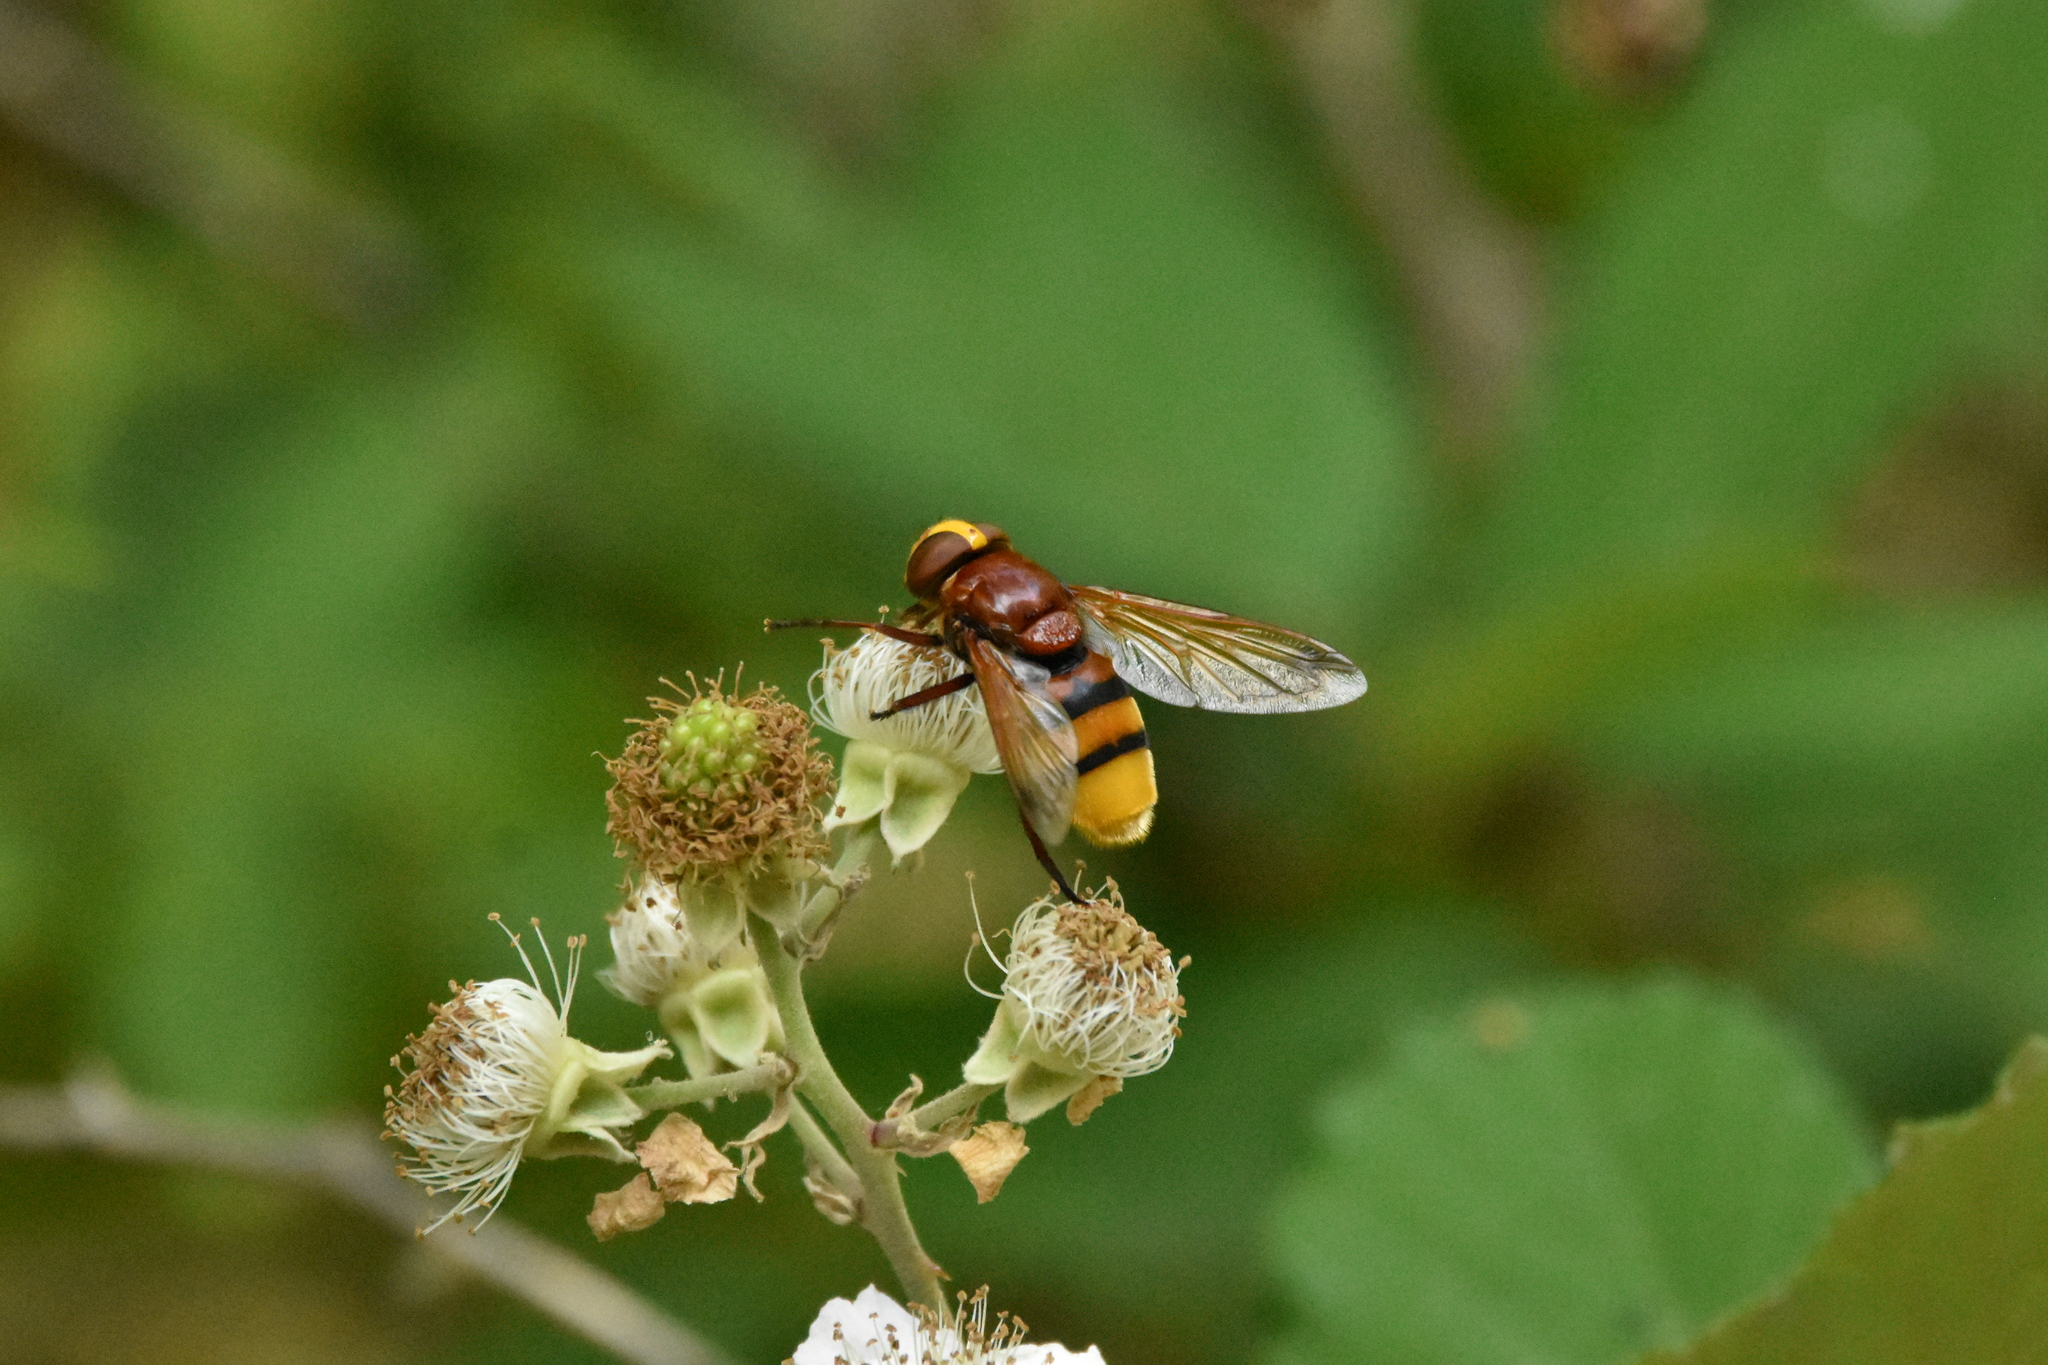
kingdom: Animalia
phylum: Arthropoda
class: Insecta
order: Diptera
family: Syrphidae
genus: Volucella
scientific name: Volucella zonaria
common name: Hornet hoverfly
